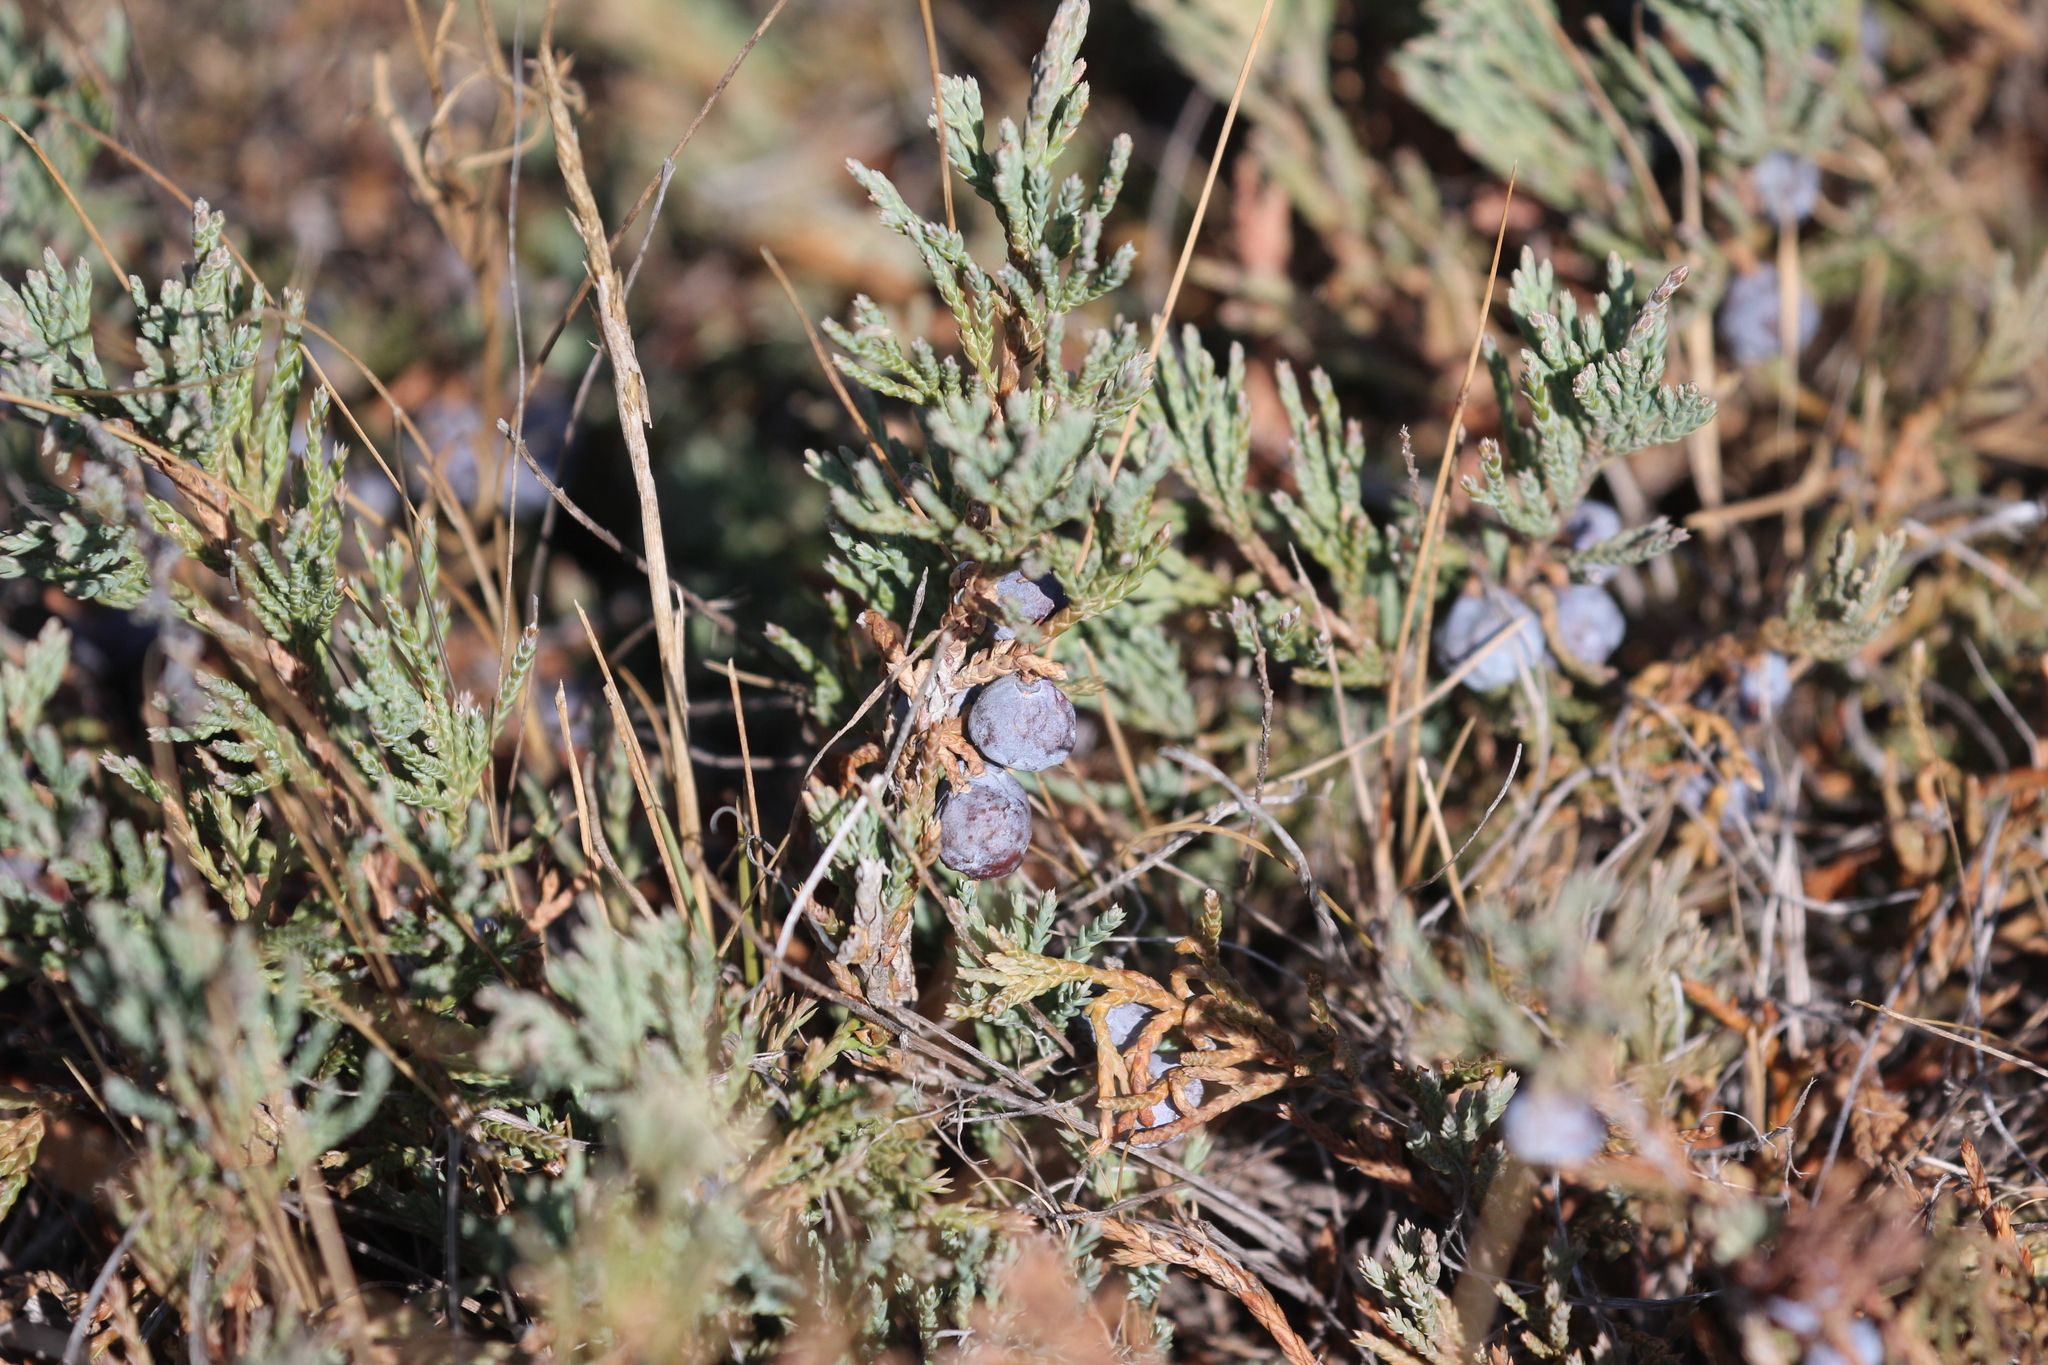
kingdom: Plantae
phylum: Tracheophyta
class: Pinopsida
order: Pinales
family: Cupressaceae
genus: Juniperus
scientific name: Juniperus horizontalis
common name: Creeping juniper
